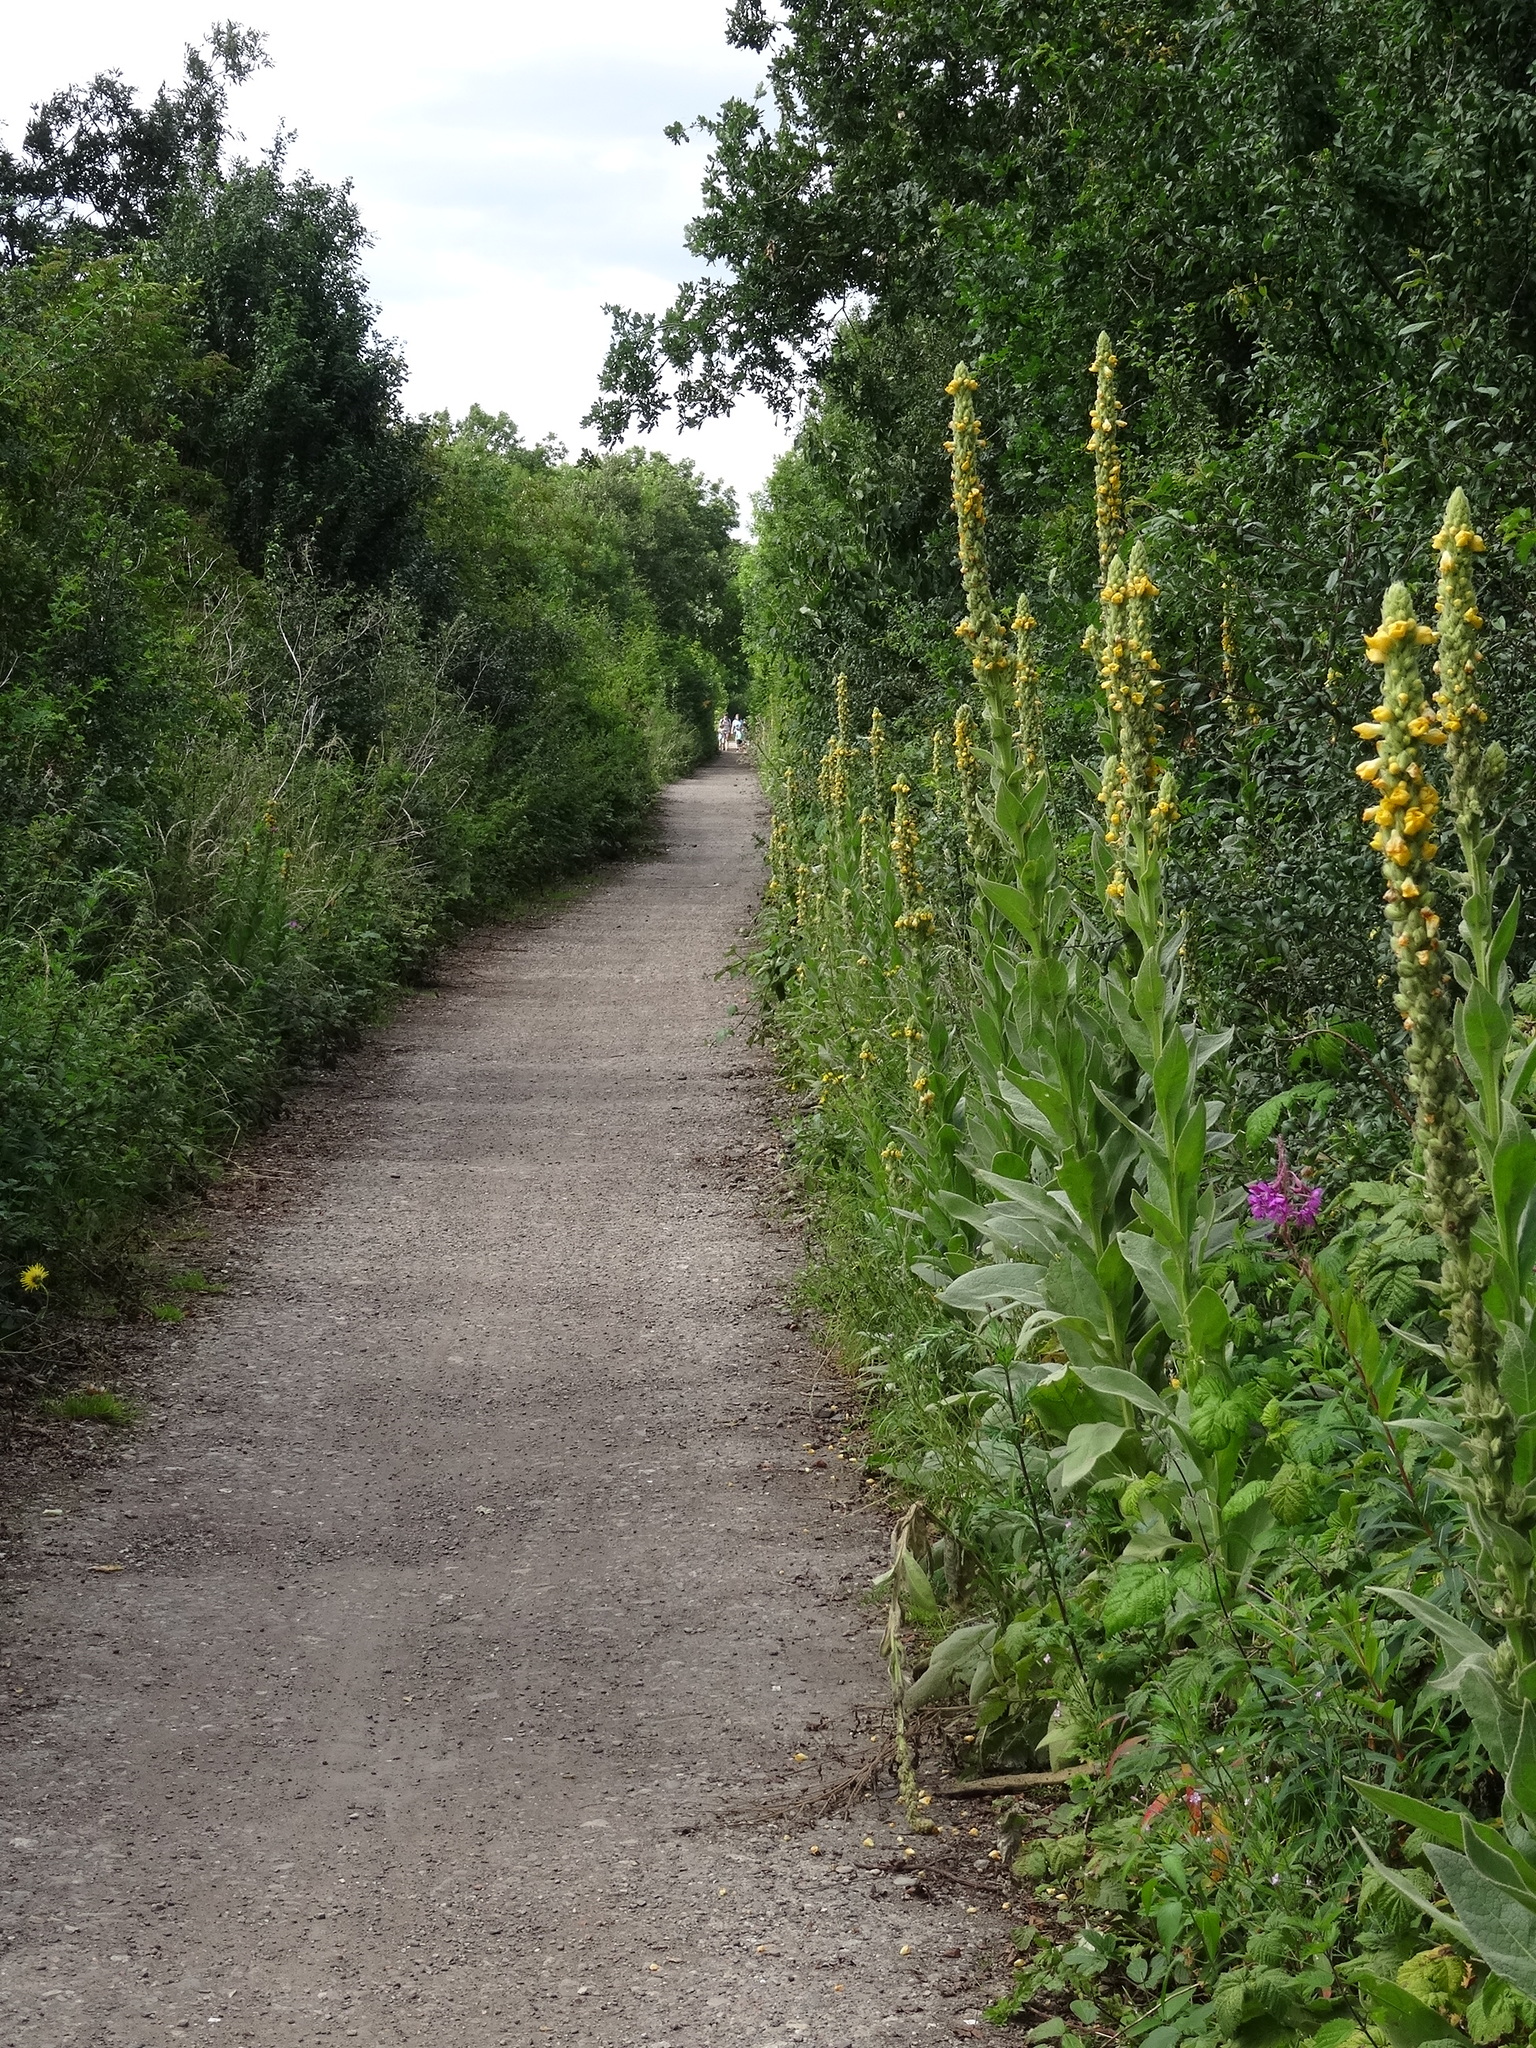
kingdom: Plantae
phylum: Tracheophyta
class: Magnoliopsida
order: Lamiales
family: Scrophulariaceae
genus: Verbascum
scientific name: Verbascum thapsus
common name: Common mullein
